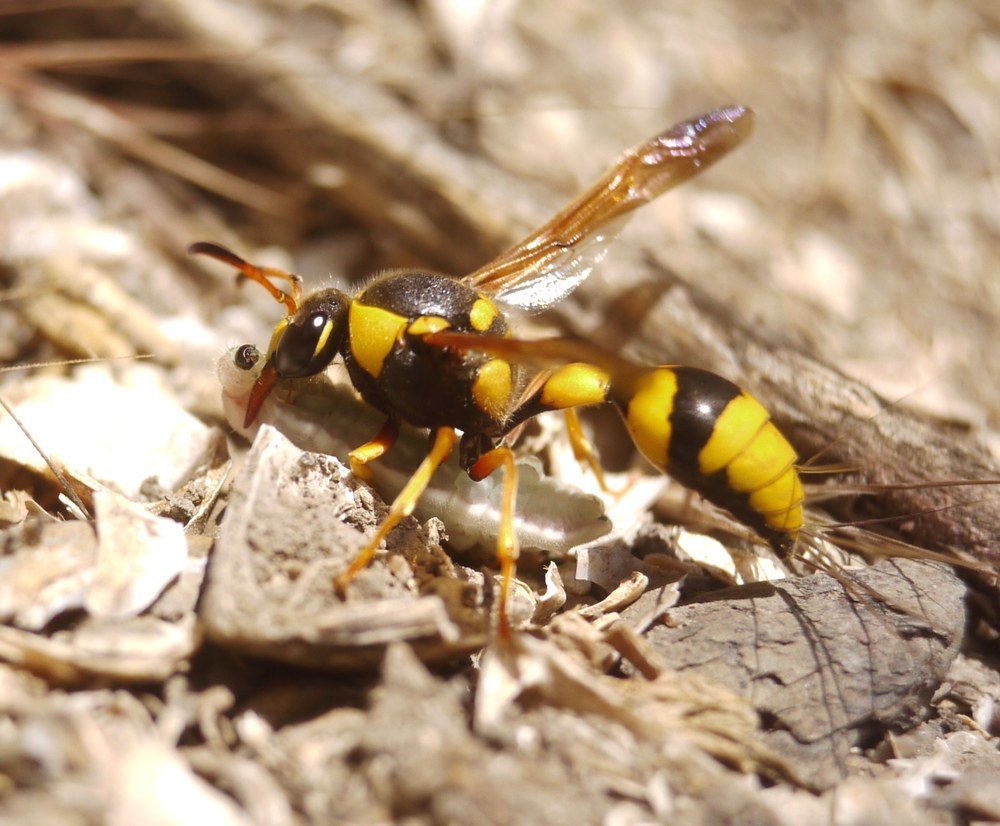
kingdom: Animalia
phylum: Arthropoda
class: Insecta
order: Hymenoptera
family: Eumenidae
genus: Katamenes
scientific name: Katamenes dimidiatus
